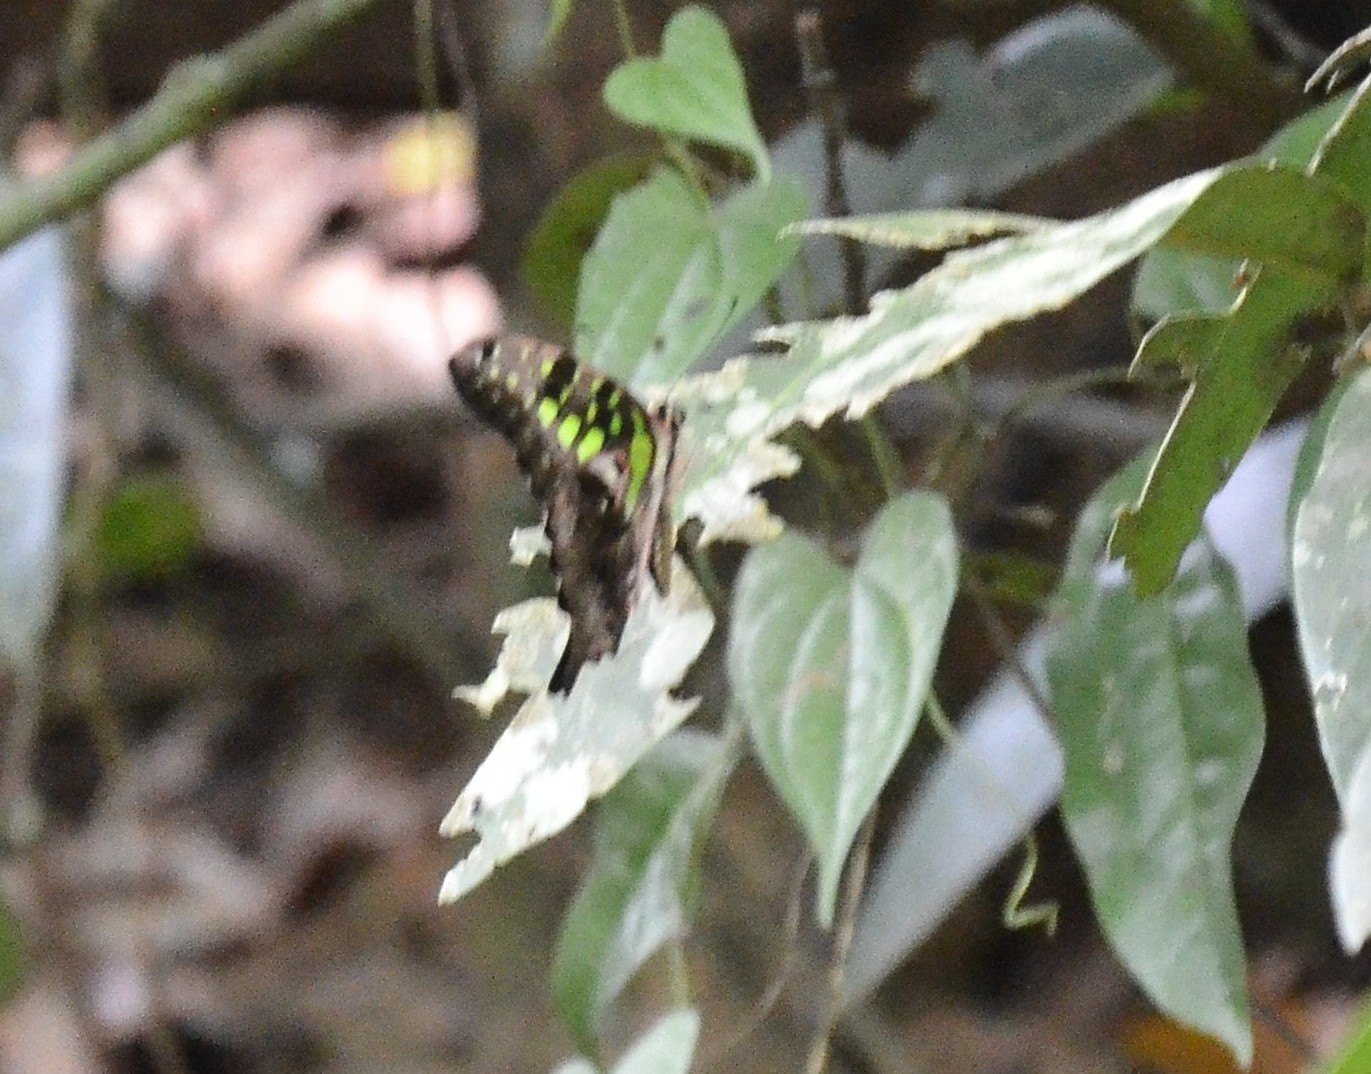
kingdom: Animalia
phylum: Arthropoda
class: Insecta
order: Lepidoptera
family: Papilionidae
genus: Graphium
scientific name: Graphium agamemnon
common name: Tailed jay
